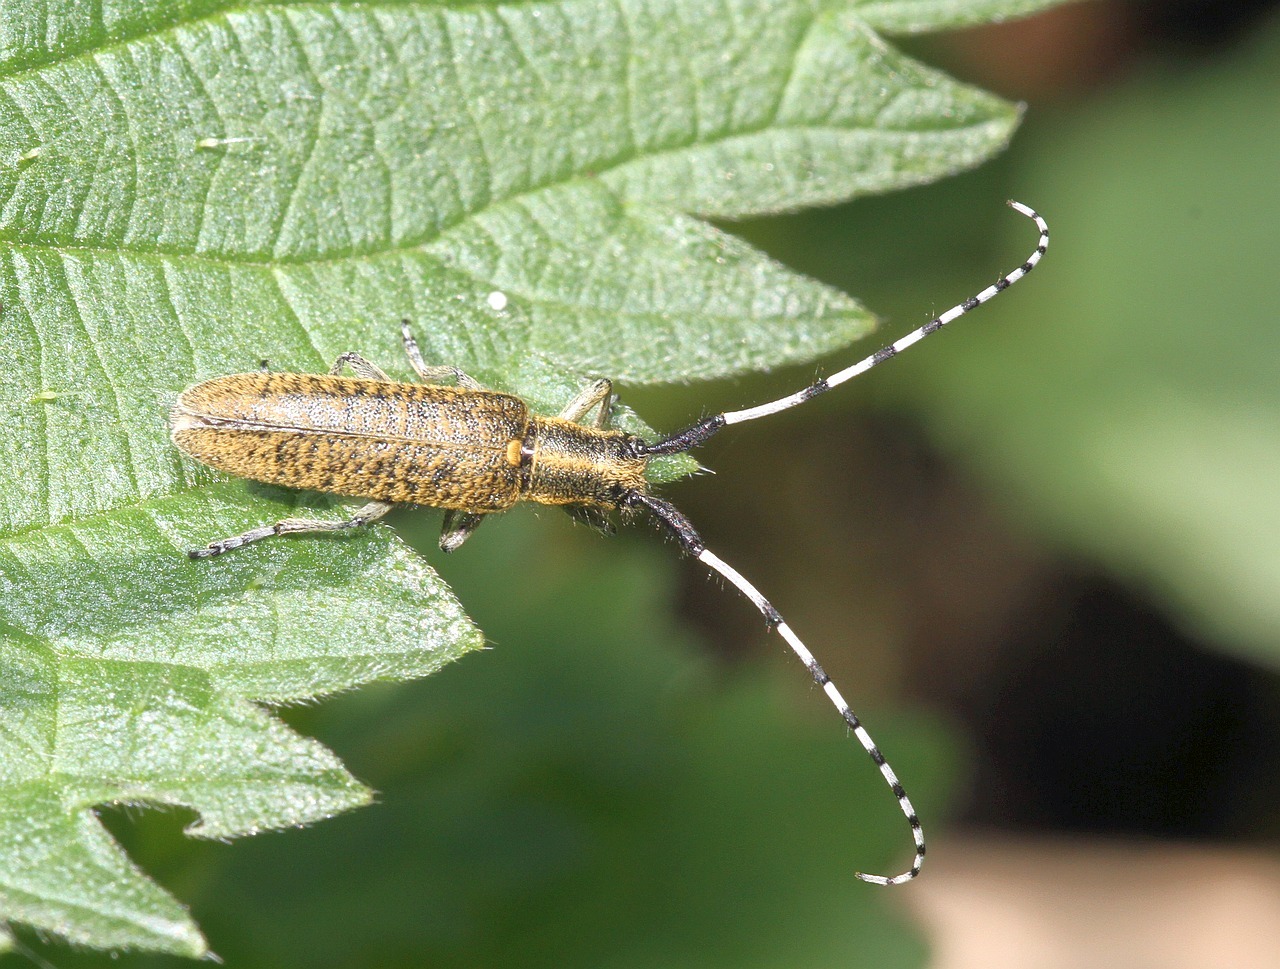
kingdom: Animalia
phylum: Arthropoda
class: Insecta
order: Coleoptera
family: Cerambycidae
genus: Agapanthia
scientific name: Agapanthia villosoviridescens
